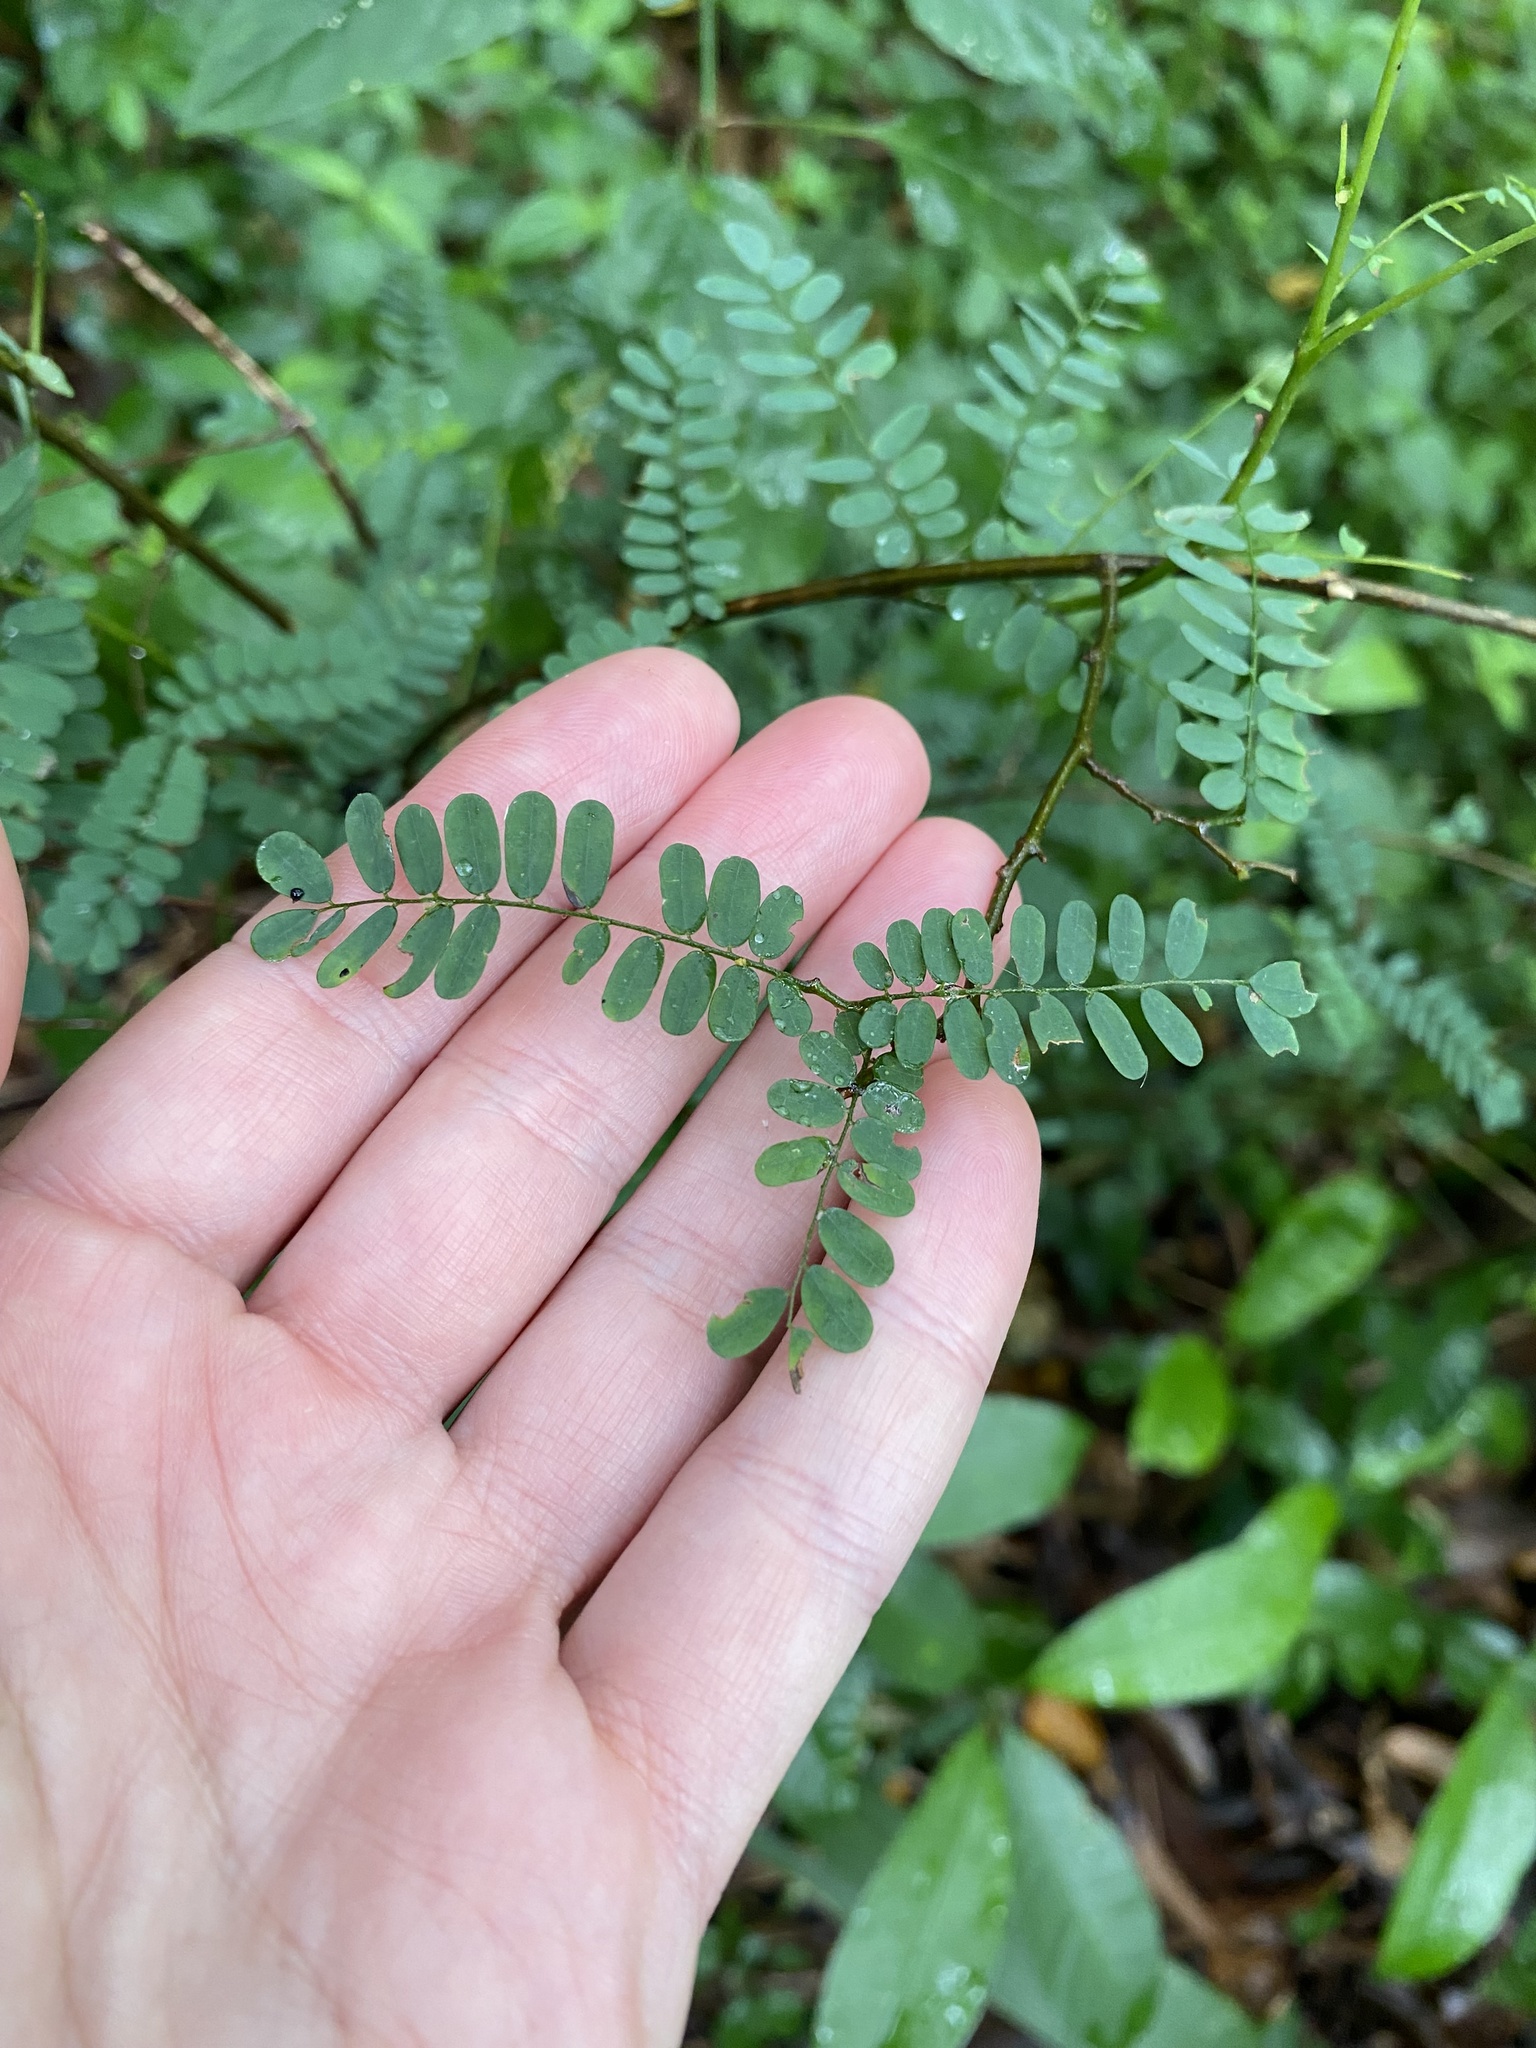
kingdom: Plantae
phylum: Tracheophyta
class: Magnoliopsida
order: Fabales
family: Fabaceae
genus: Dalbergia
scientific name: Dalbergia armata
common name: Hluhluwe climber
